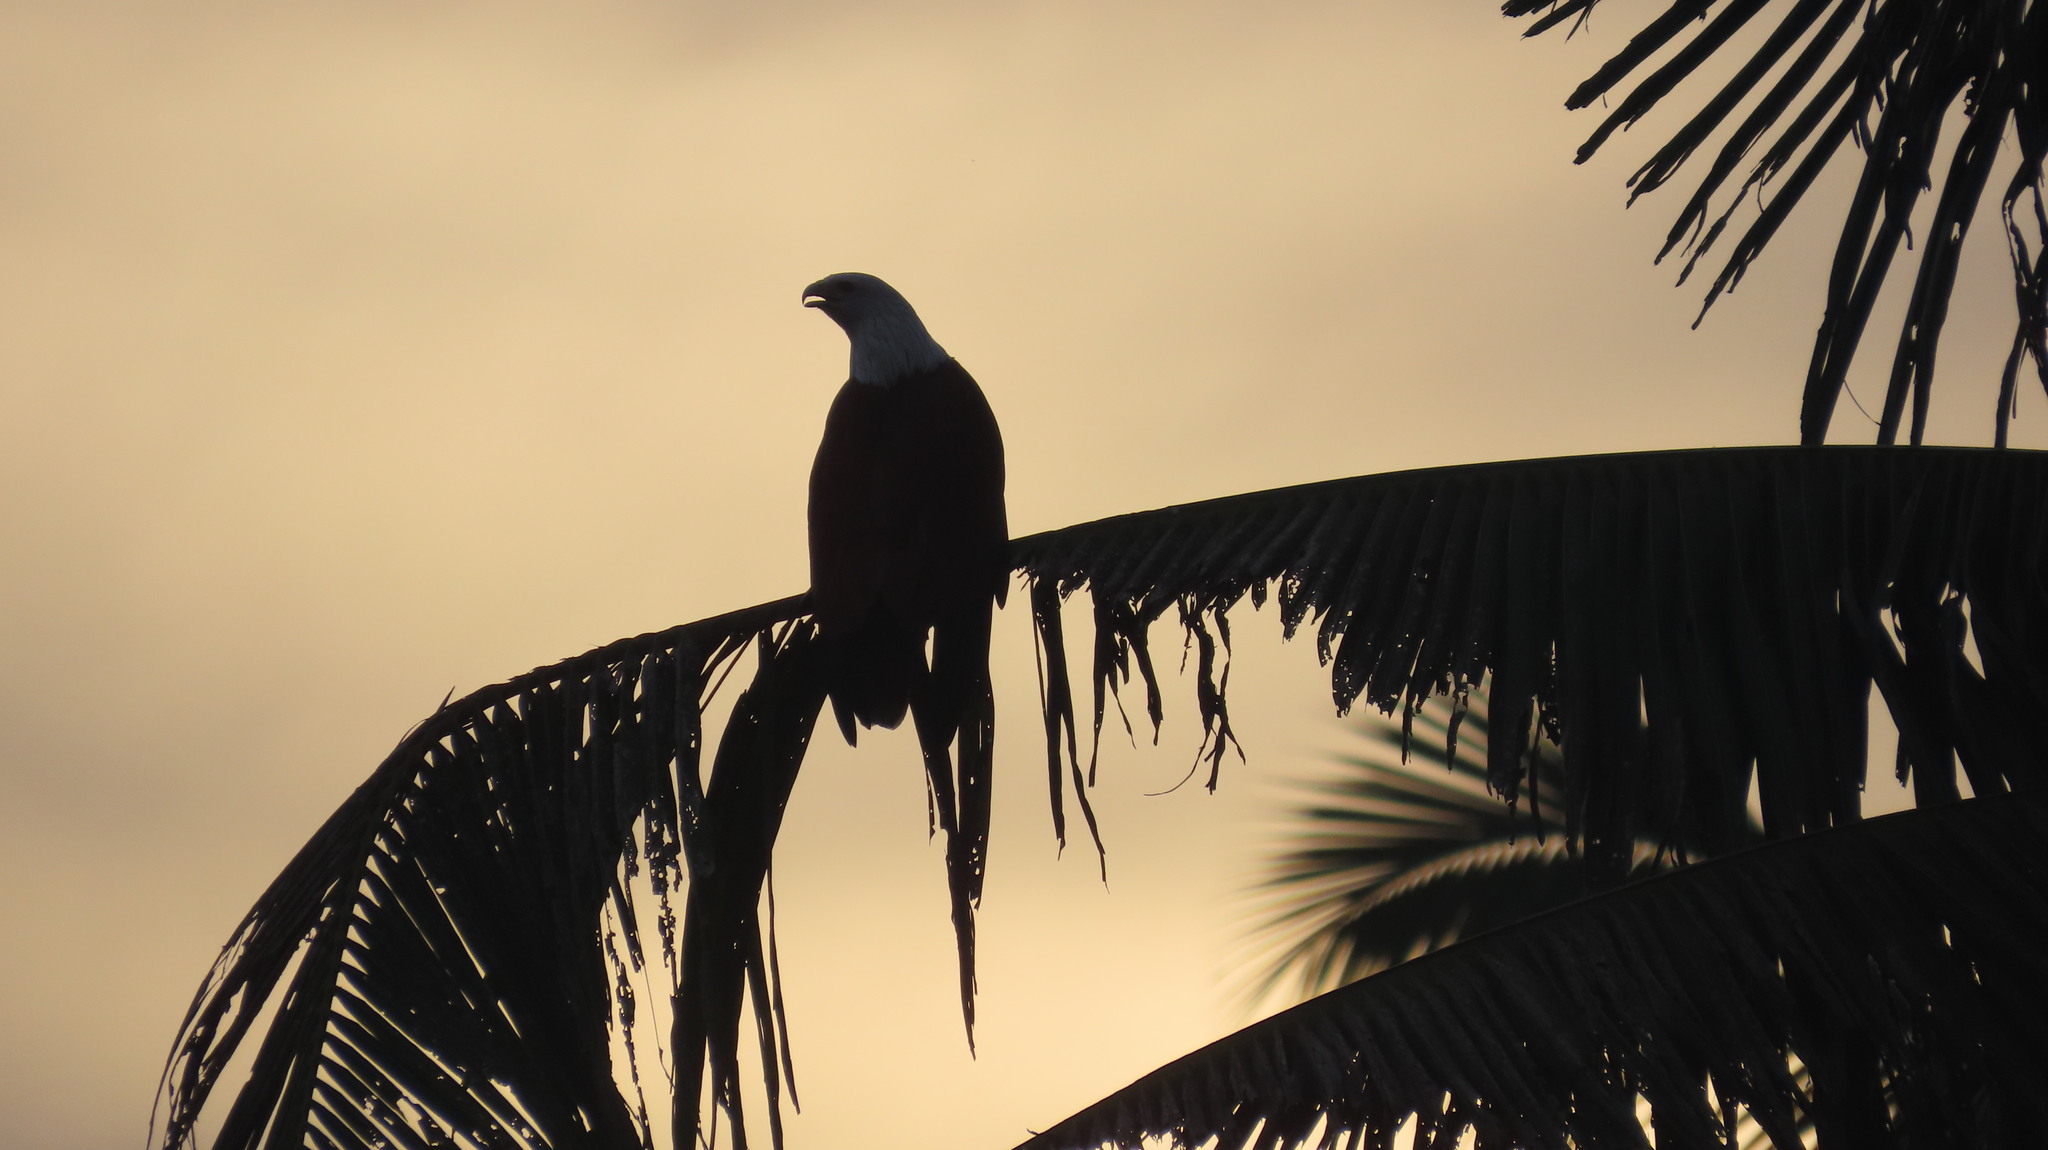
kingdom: Animalia
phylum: Chordata
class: Aves
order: Accipitriformes
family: Accipitridae
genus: Haliastur
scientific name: Haliastur indus
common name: Brahminy kite
